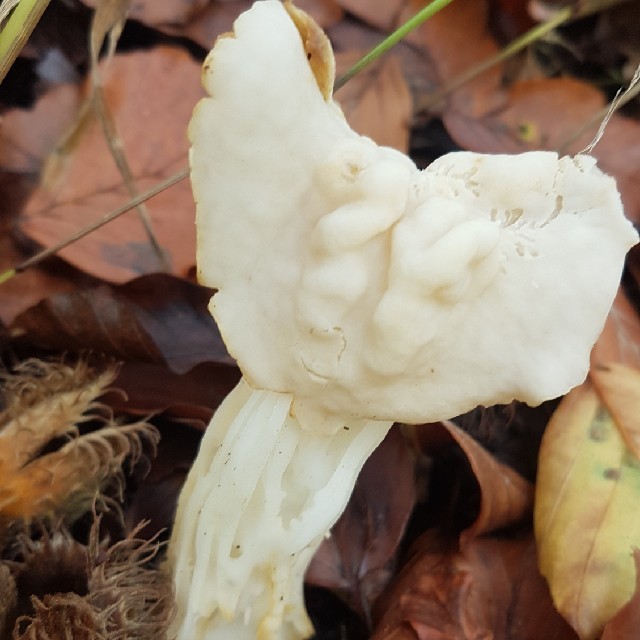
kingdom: Fungi
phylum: Ascomycota
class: Pezizomycetes
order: Pezizales
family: Helvellaceae
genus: Helvella
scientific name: Helvella crispa
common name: White saddle
